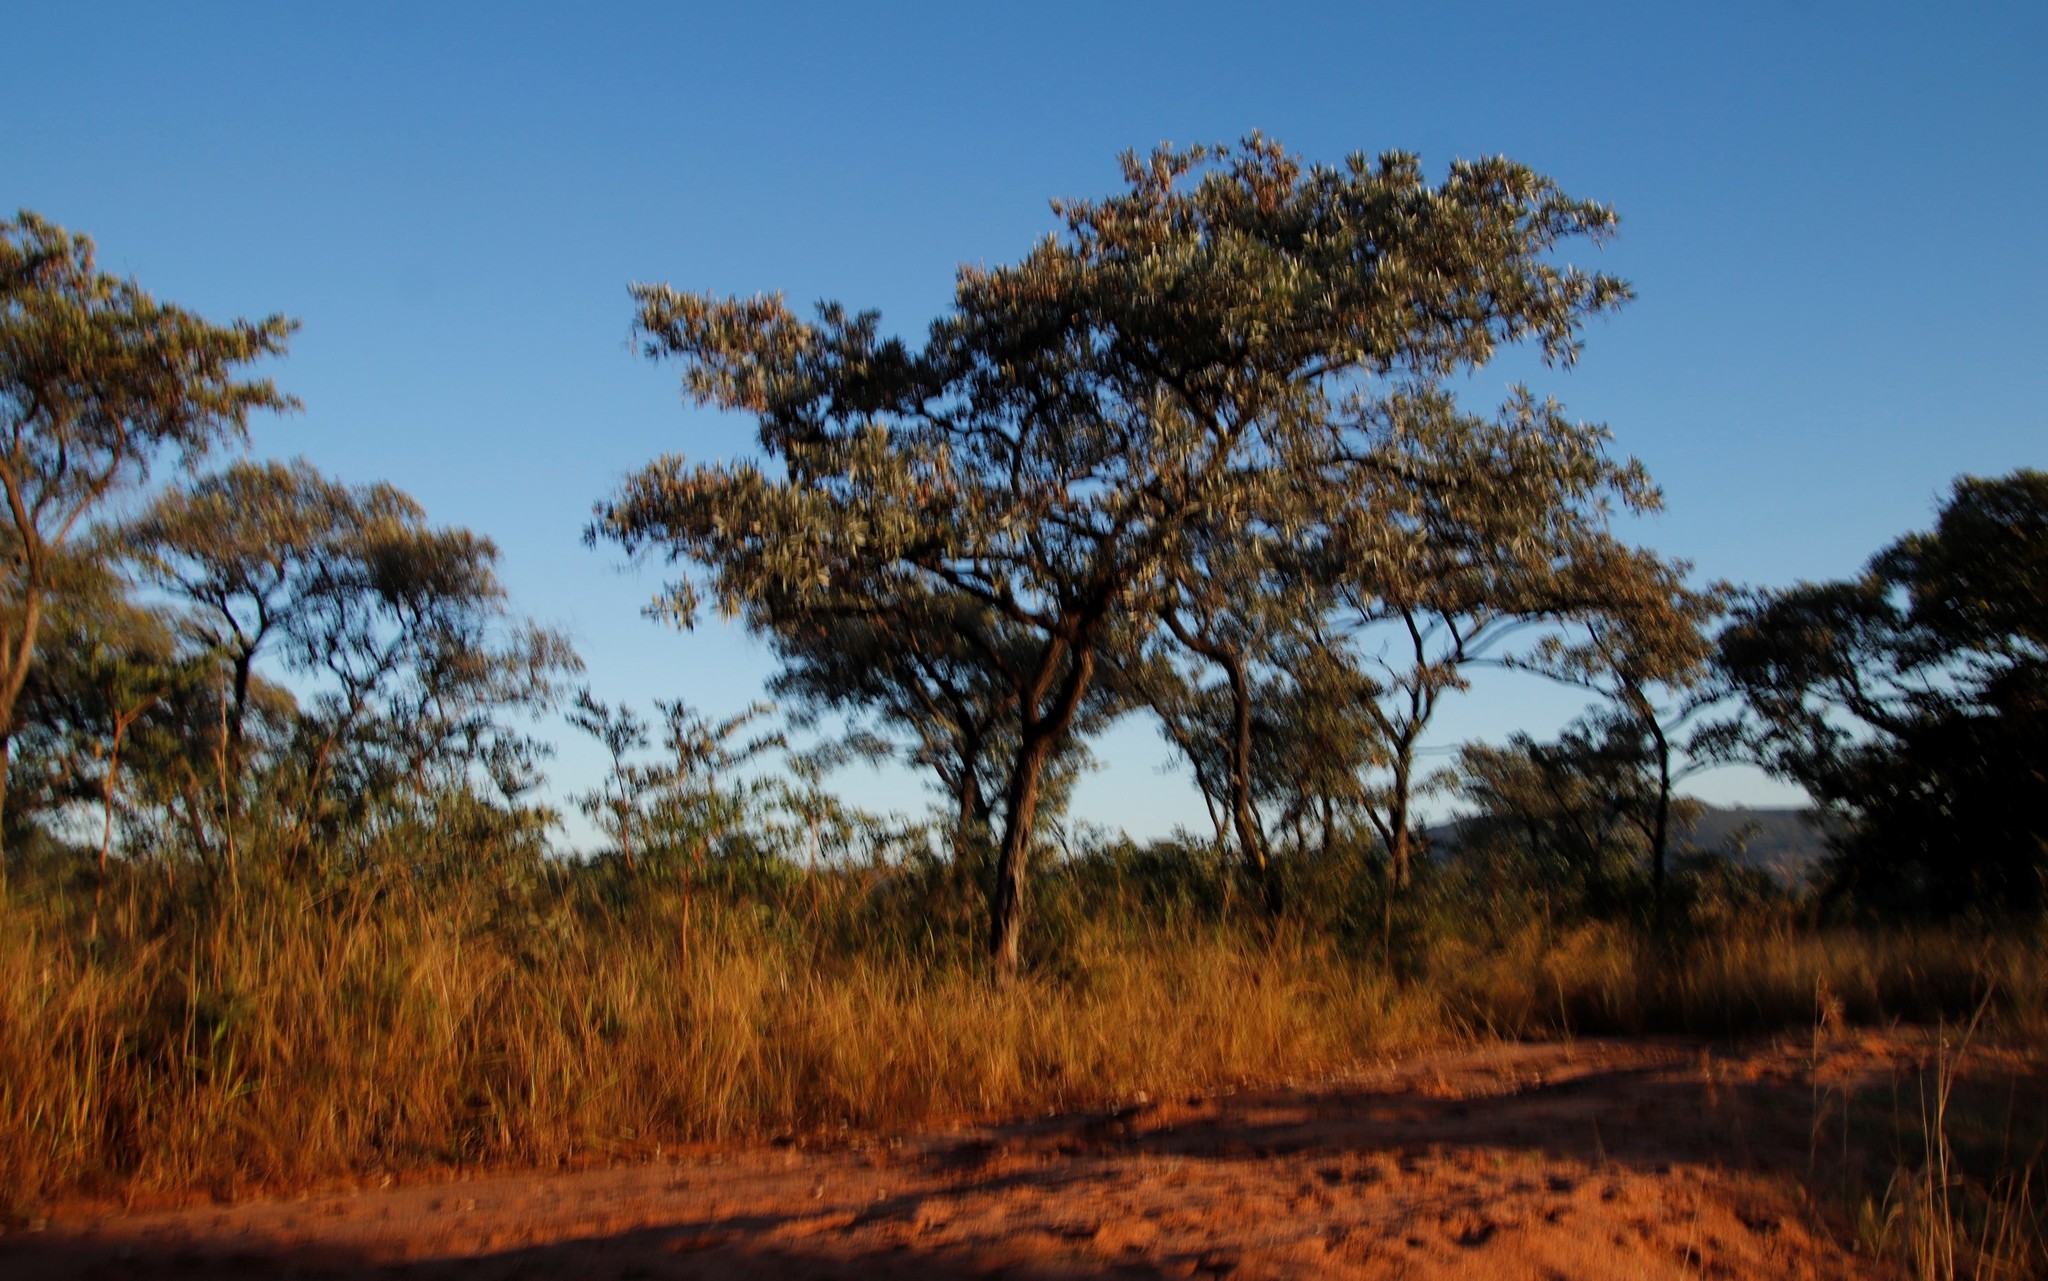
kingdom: Plantae
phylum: Tracheophyta
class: Magnoliopsida
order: Myrtales
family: Combretaceae
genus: Terminalia
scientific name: Terminalia sericea
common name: Clusterleaf
